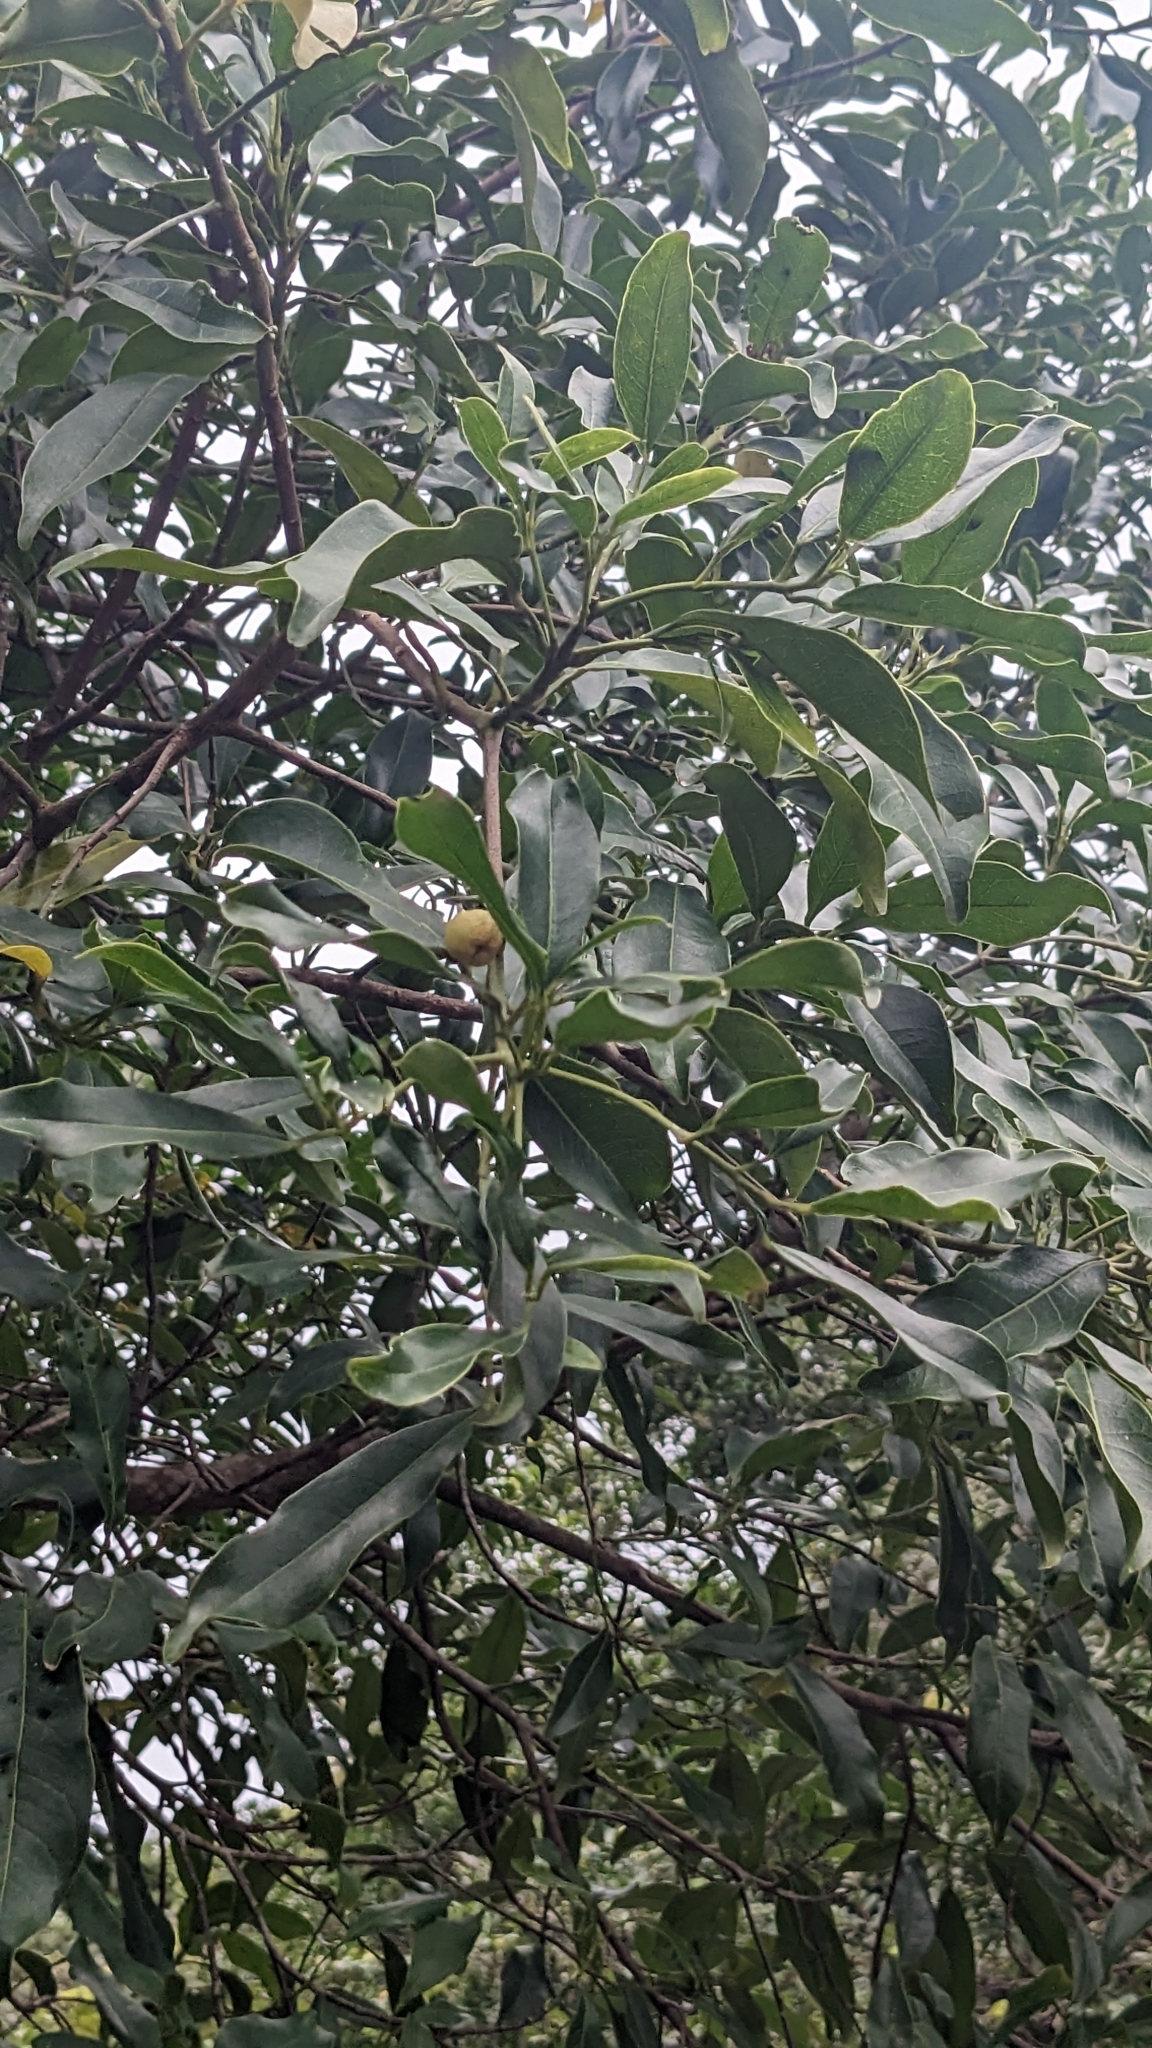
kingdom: Plantae
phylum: Tracheophyta
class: Magnoliopsida
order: Sapindales
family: Rutaceae
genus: Acronychia
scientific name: Acronychia pedunculata
